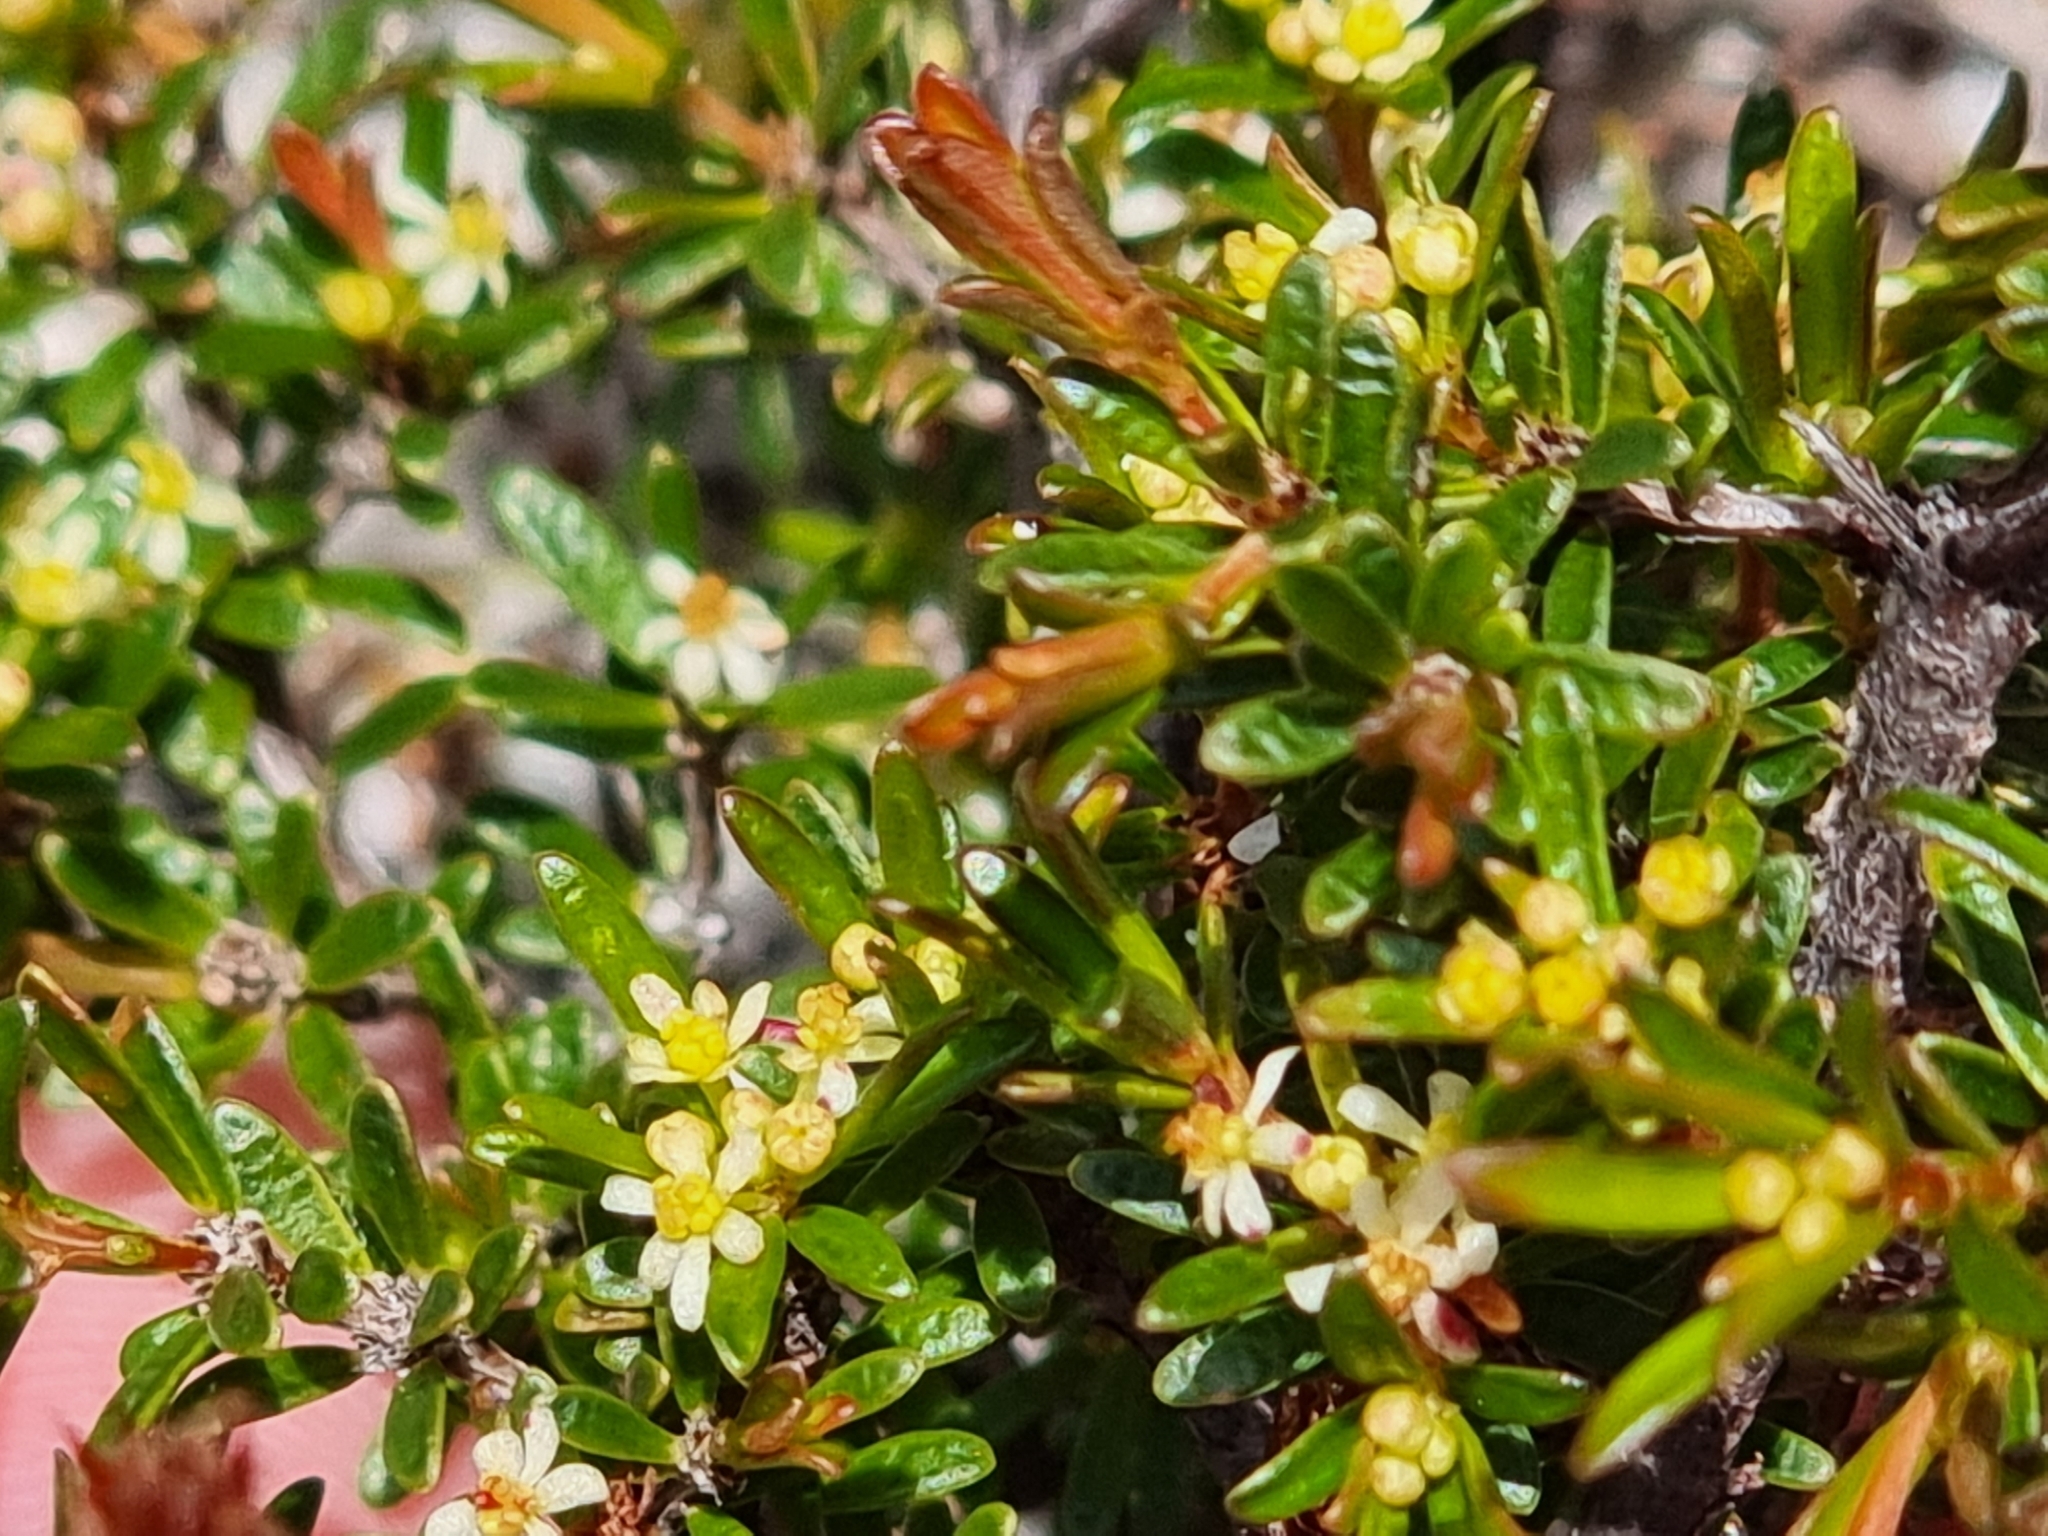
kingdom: Plantae
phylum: Tracheophyta
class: Magnoliopsida
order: Malpighiales
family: Picrodendraceae
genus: Pseudanthus
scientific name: Pseudanthus orientalis
